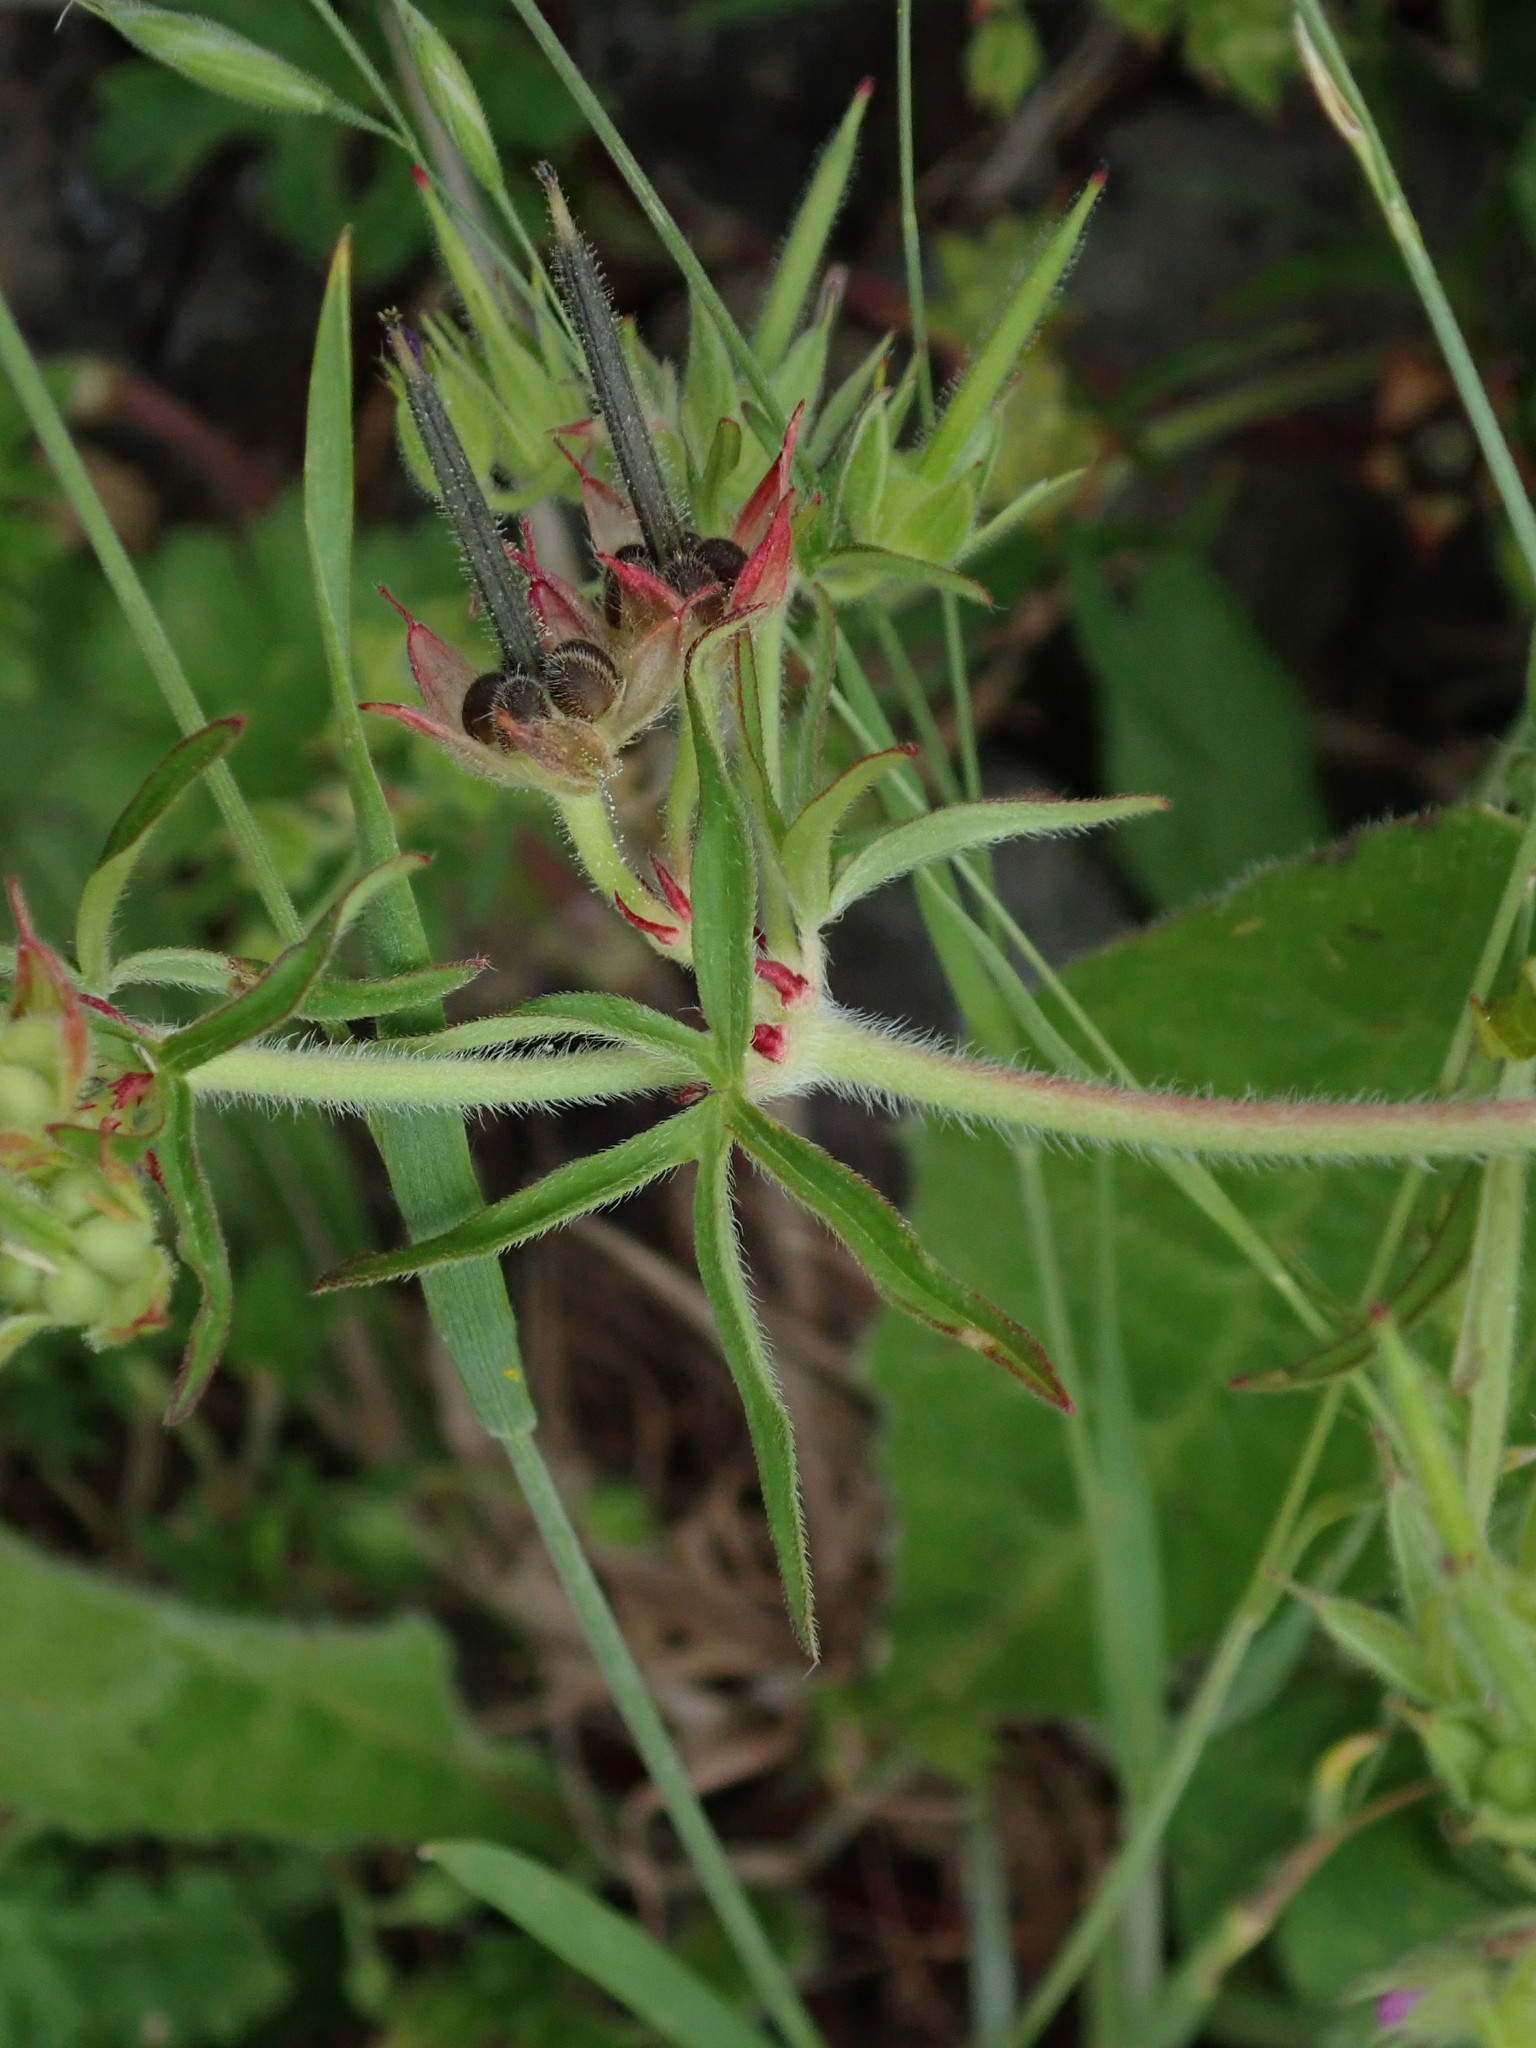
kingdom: Plantae
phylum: Tracheophyta
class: Magnoliopsida
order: Geraniales
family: Geraniaceae
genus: Geranium
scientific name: Geranium dissectum
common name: Cut-leaved crane's-bill
